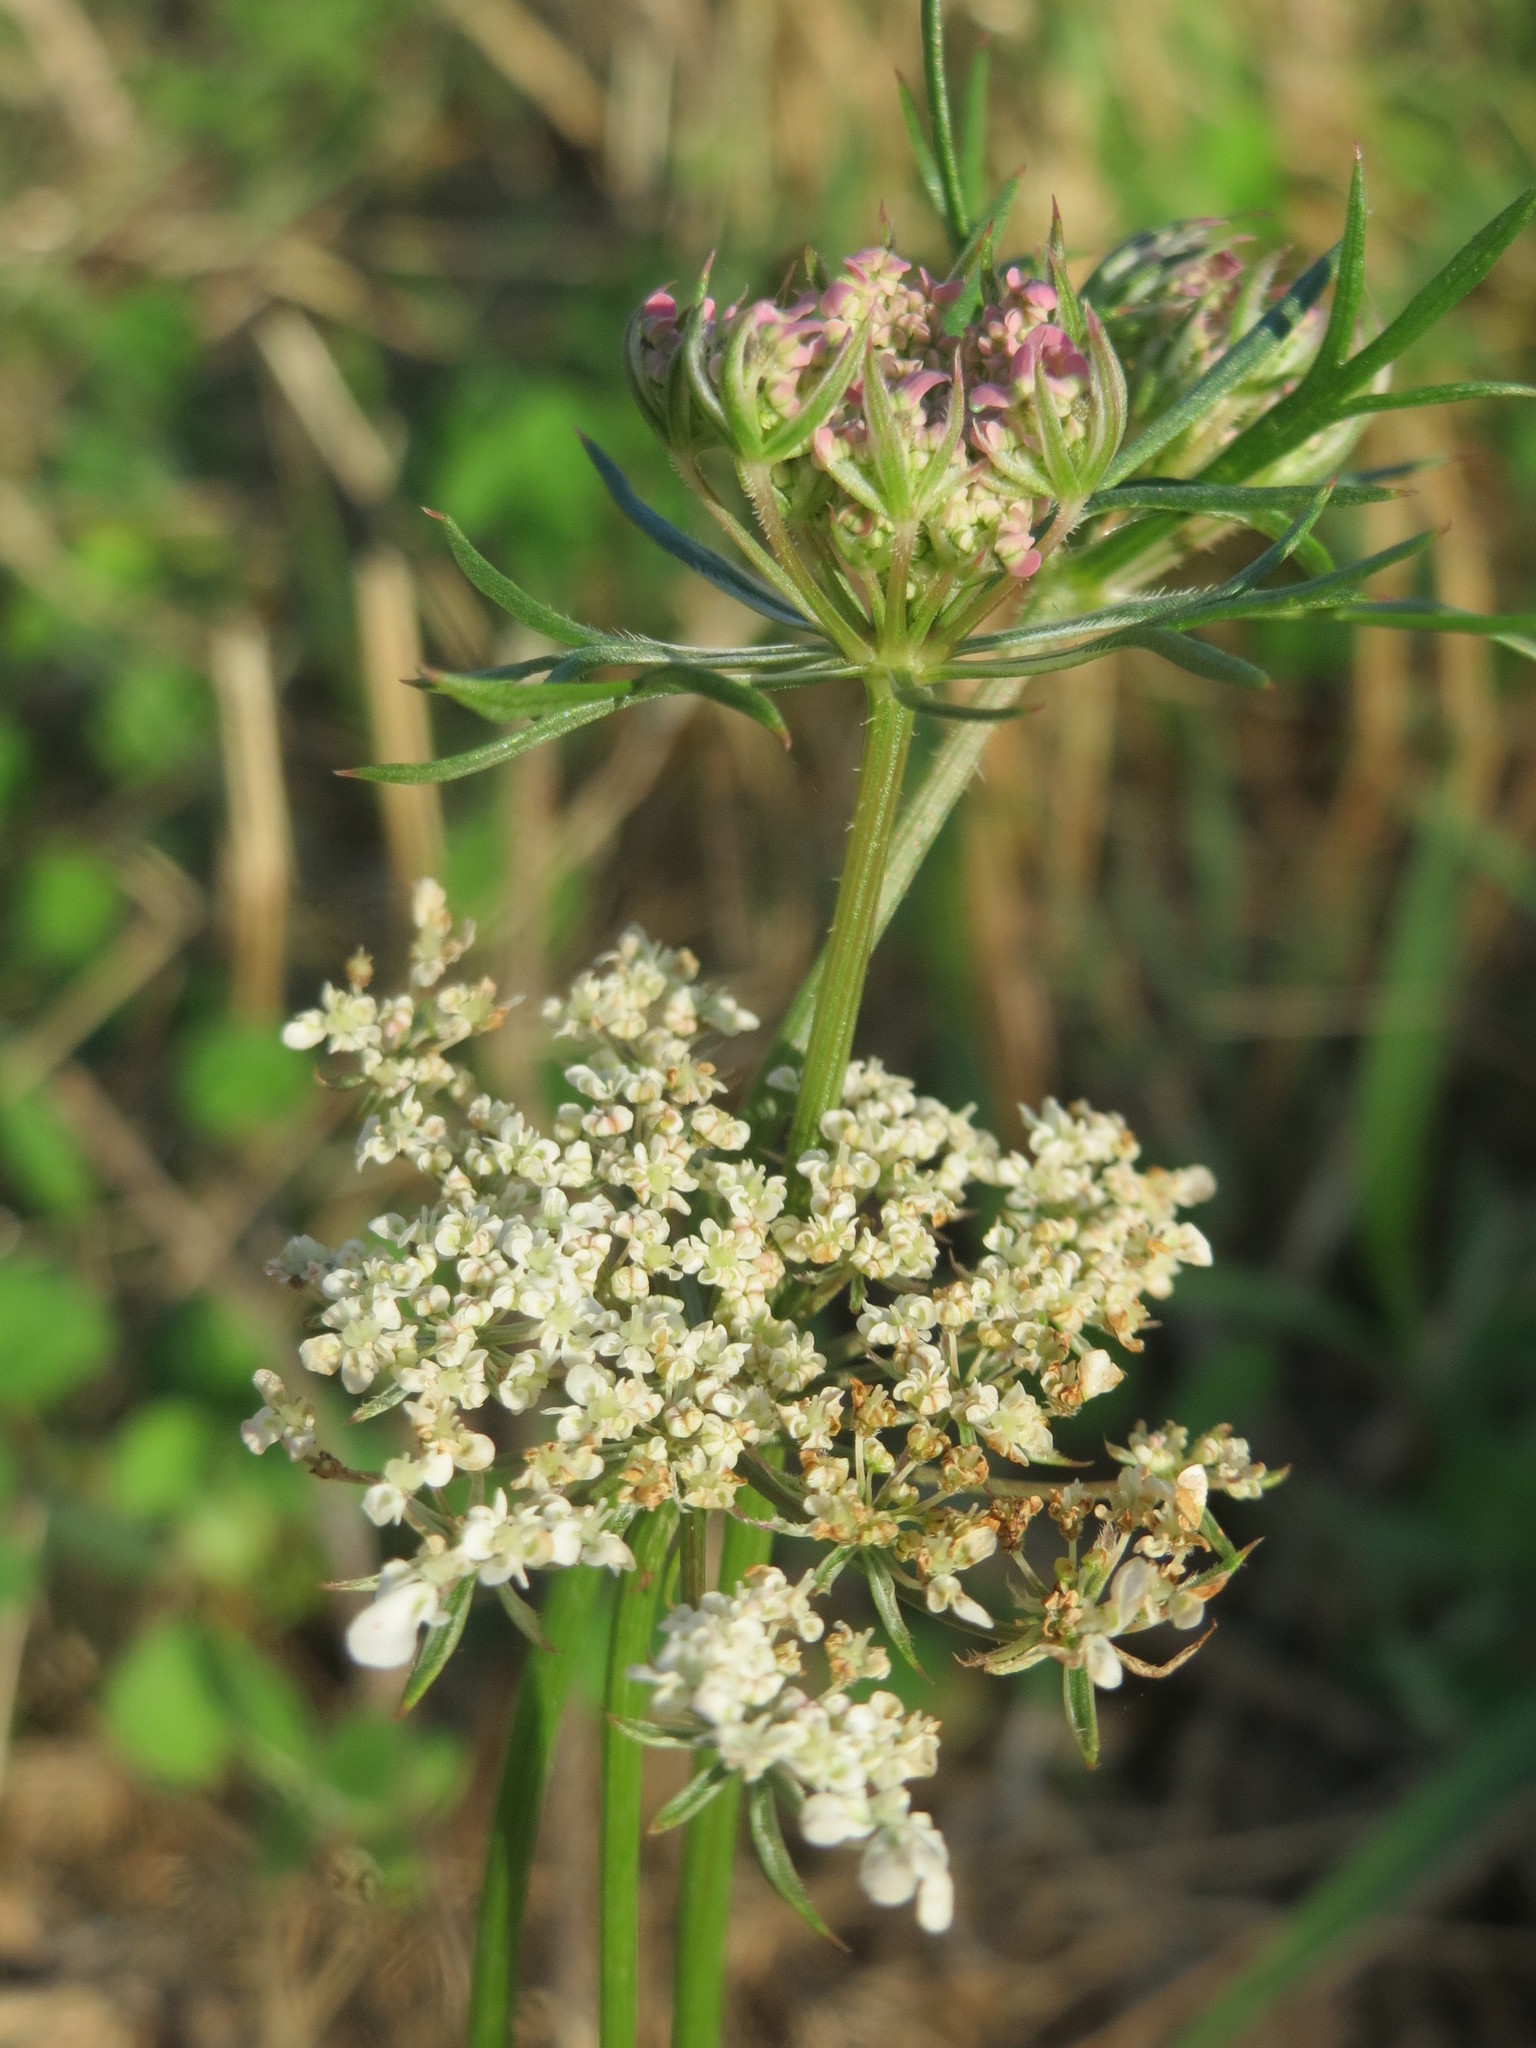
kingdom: Plantae
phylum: Tracheophyta
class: Magnoliopsida
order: Apiales
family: Apiaceae
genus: Daucus
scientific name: Daucus carota
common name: Wild carrot
